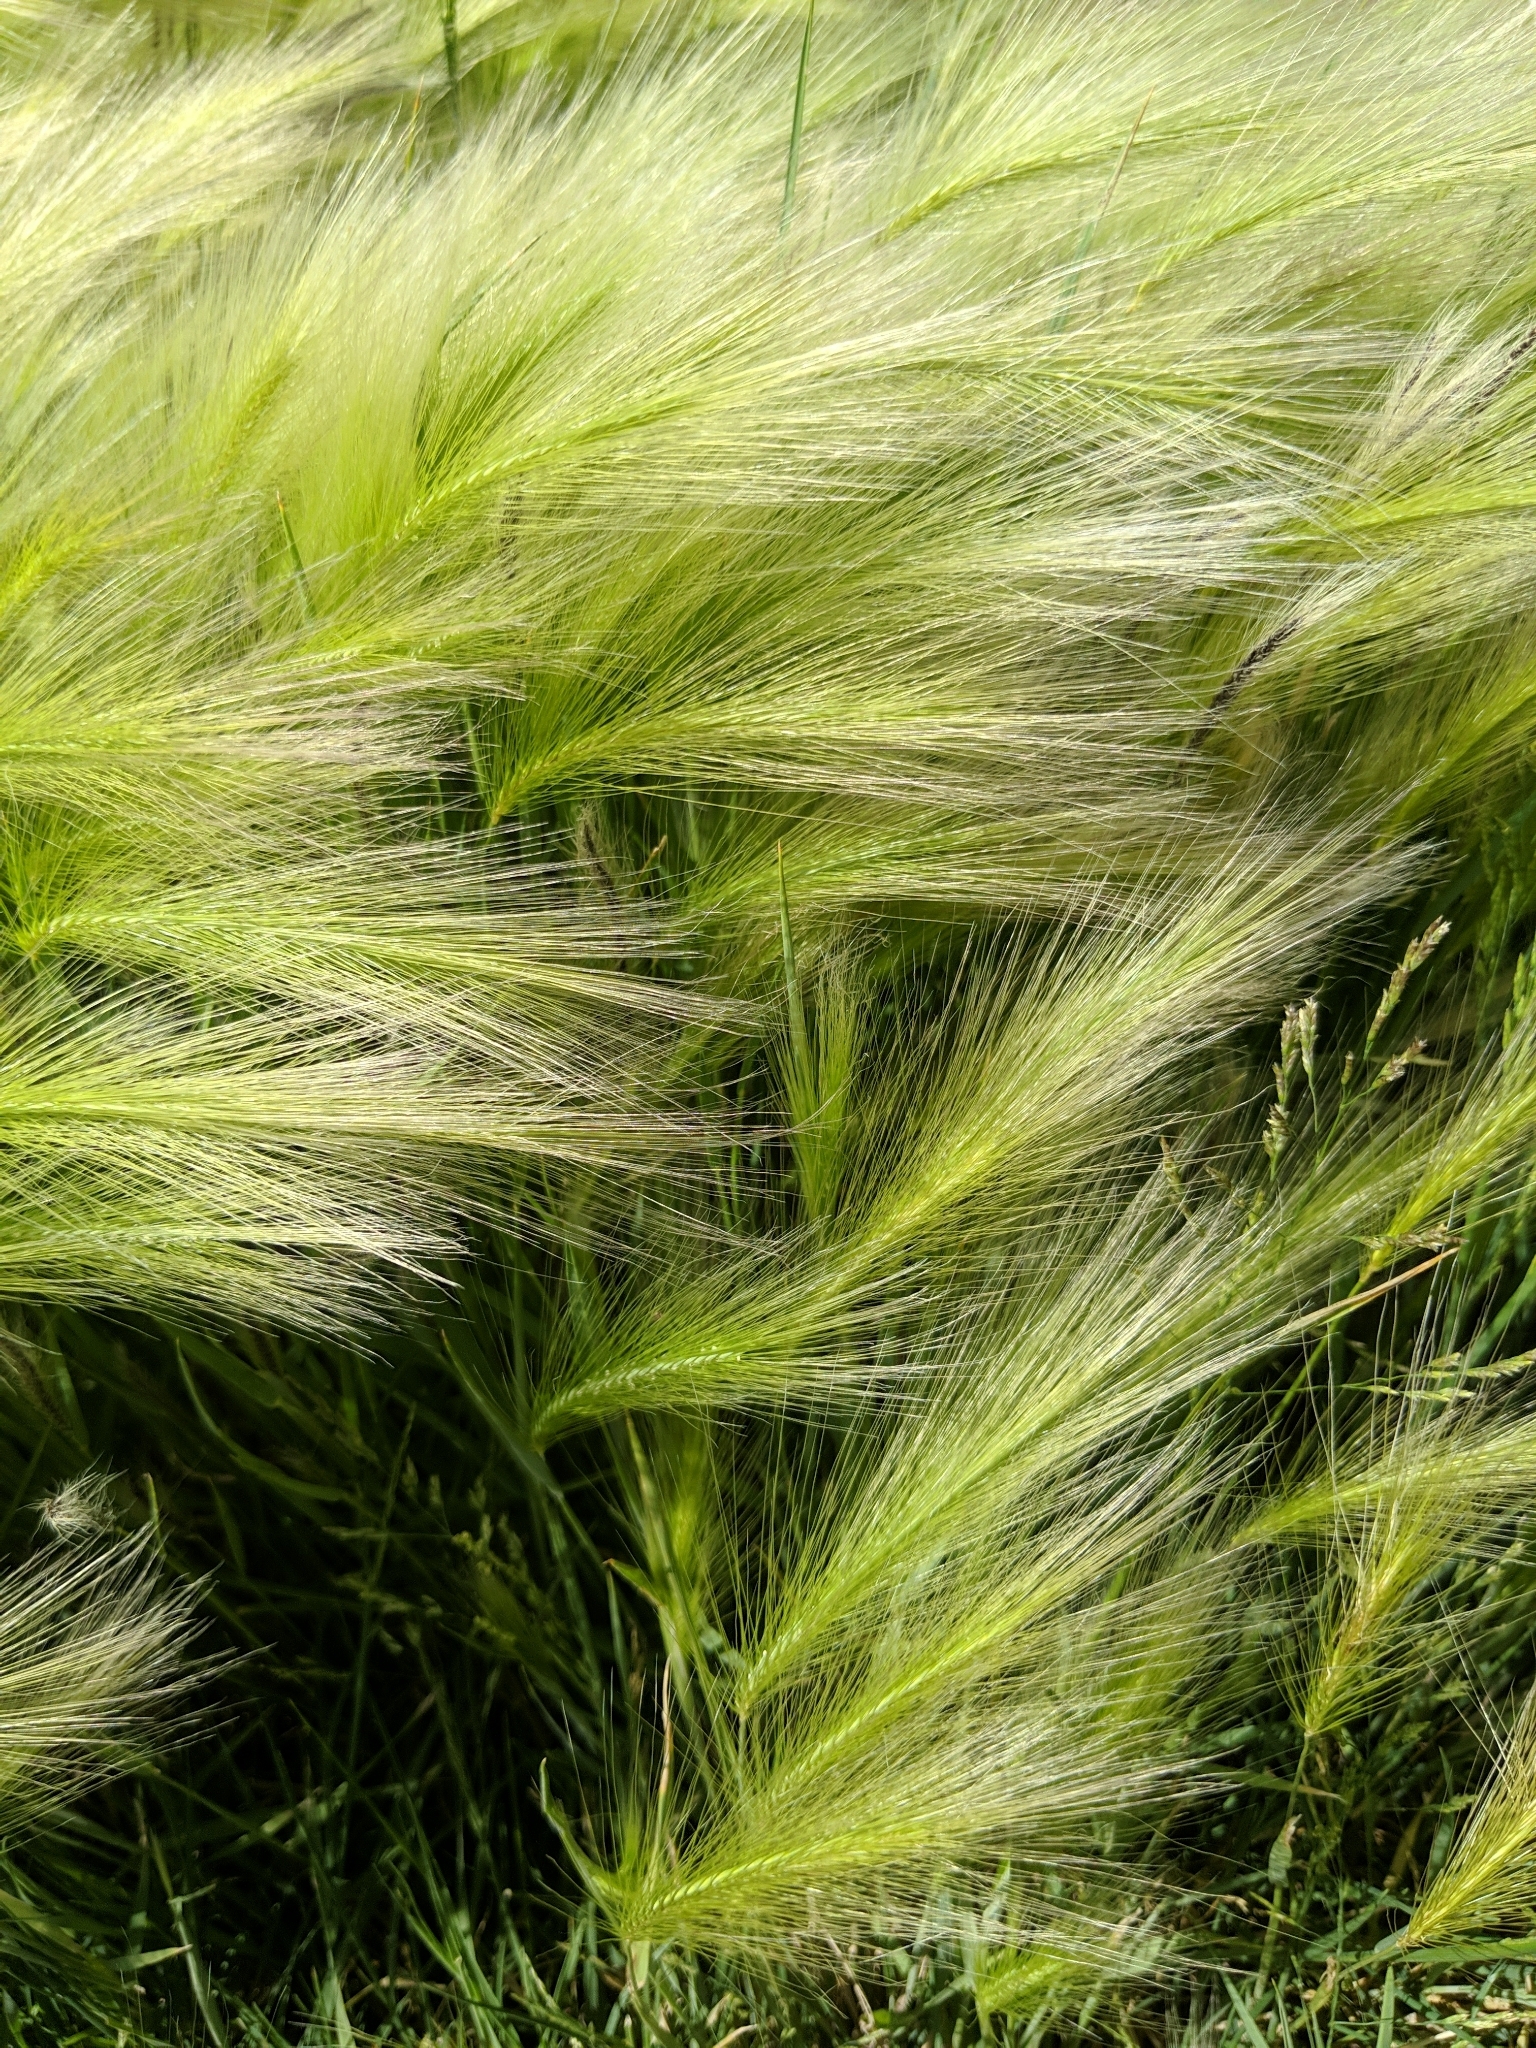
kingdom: Plantae
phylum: Tracheophyta
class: Liliopsida
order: Poales
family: Poaceae
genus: Hordeum
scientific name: Hordeum jubatum
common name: Foxtail barley
